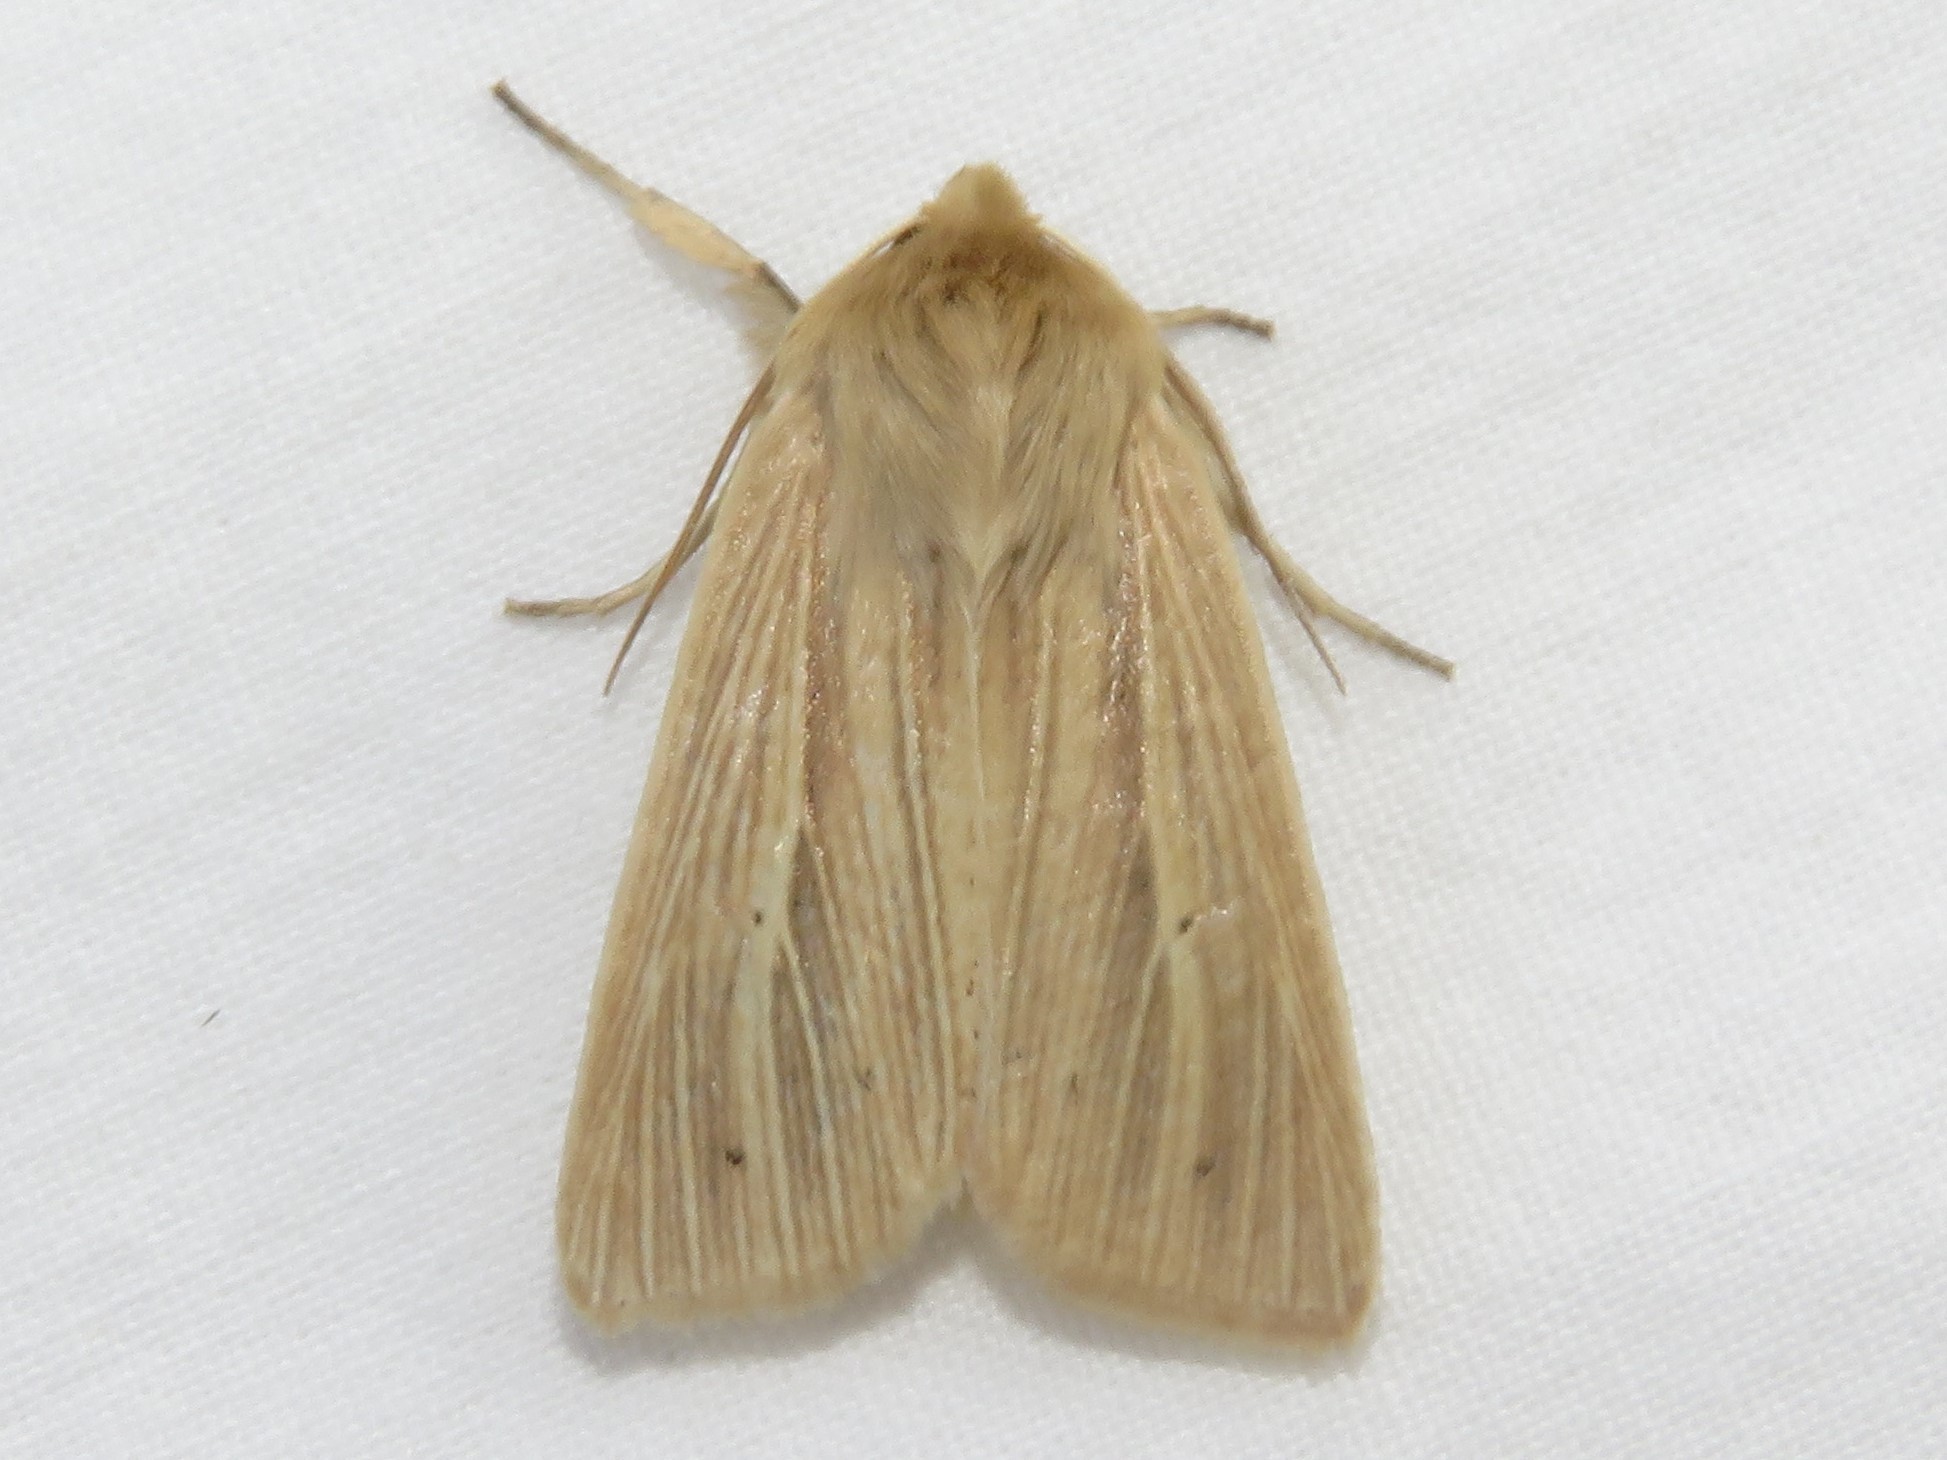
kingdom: Animalia
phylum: Arthropoda
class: Insecta
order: Lepidoptera
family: Noctuidae
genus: Mythimna
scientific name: Mythimna oxygala
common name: Lesser wainscot
